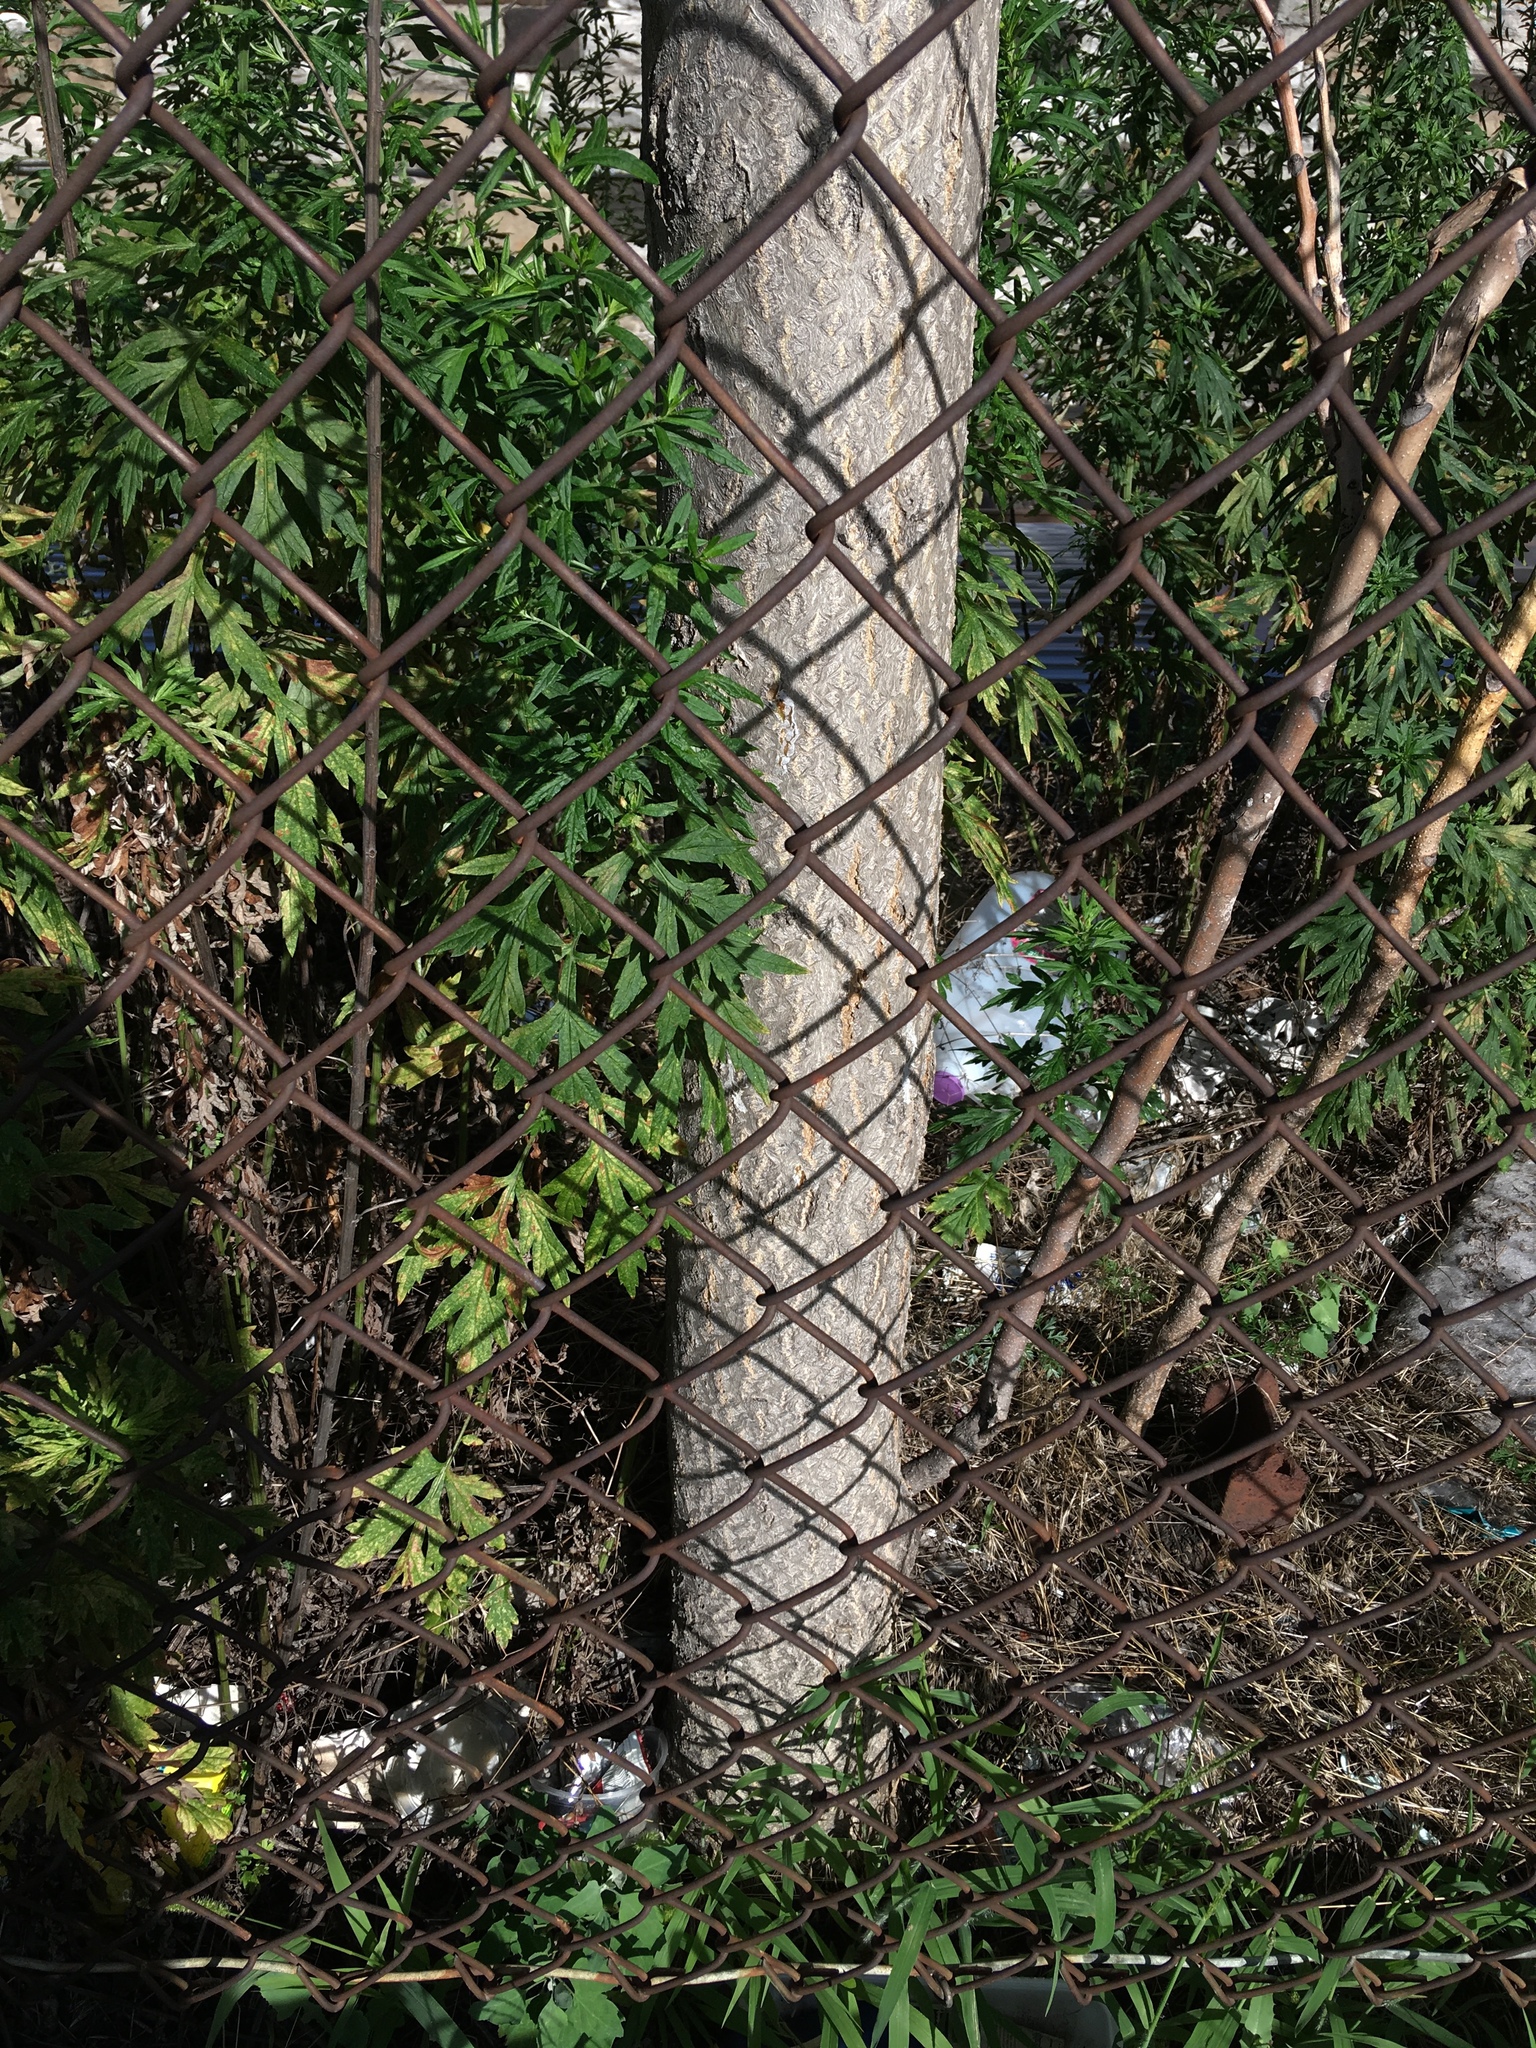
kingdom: Plantae
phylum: Tracheophyta
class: Magnoliopsida
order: Sapindales
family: Simaroubaceae
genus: Ailanthus
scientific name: Ailanthus altissima
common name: Tree-of-heaven
